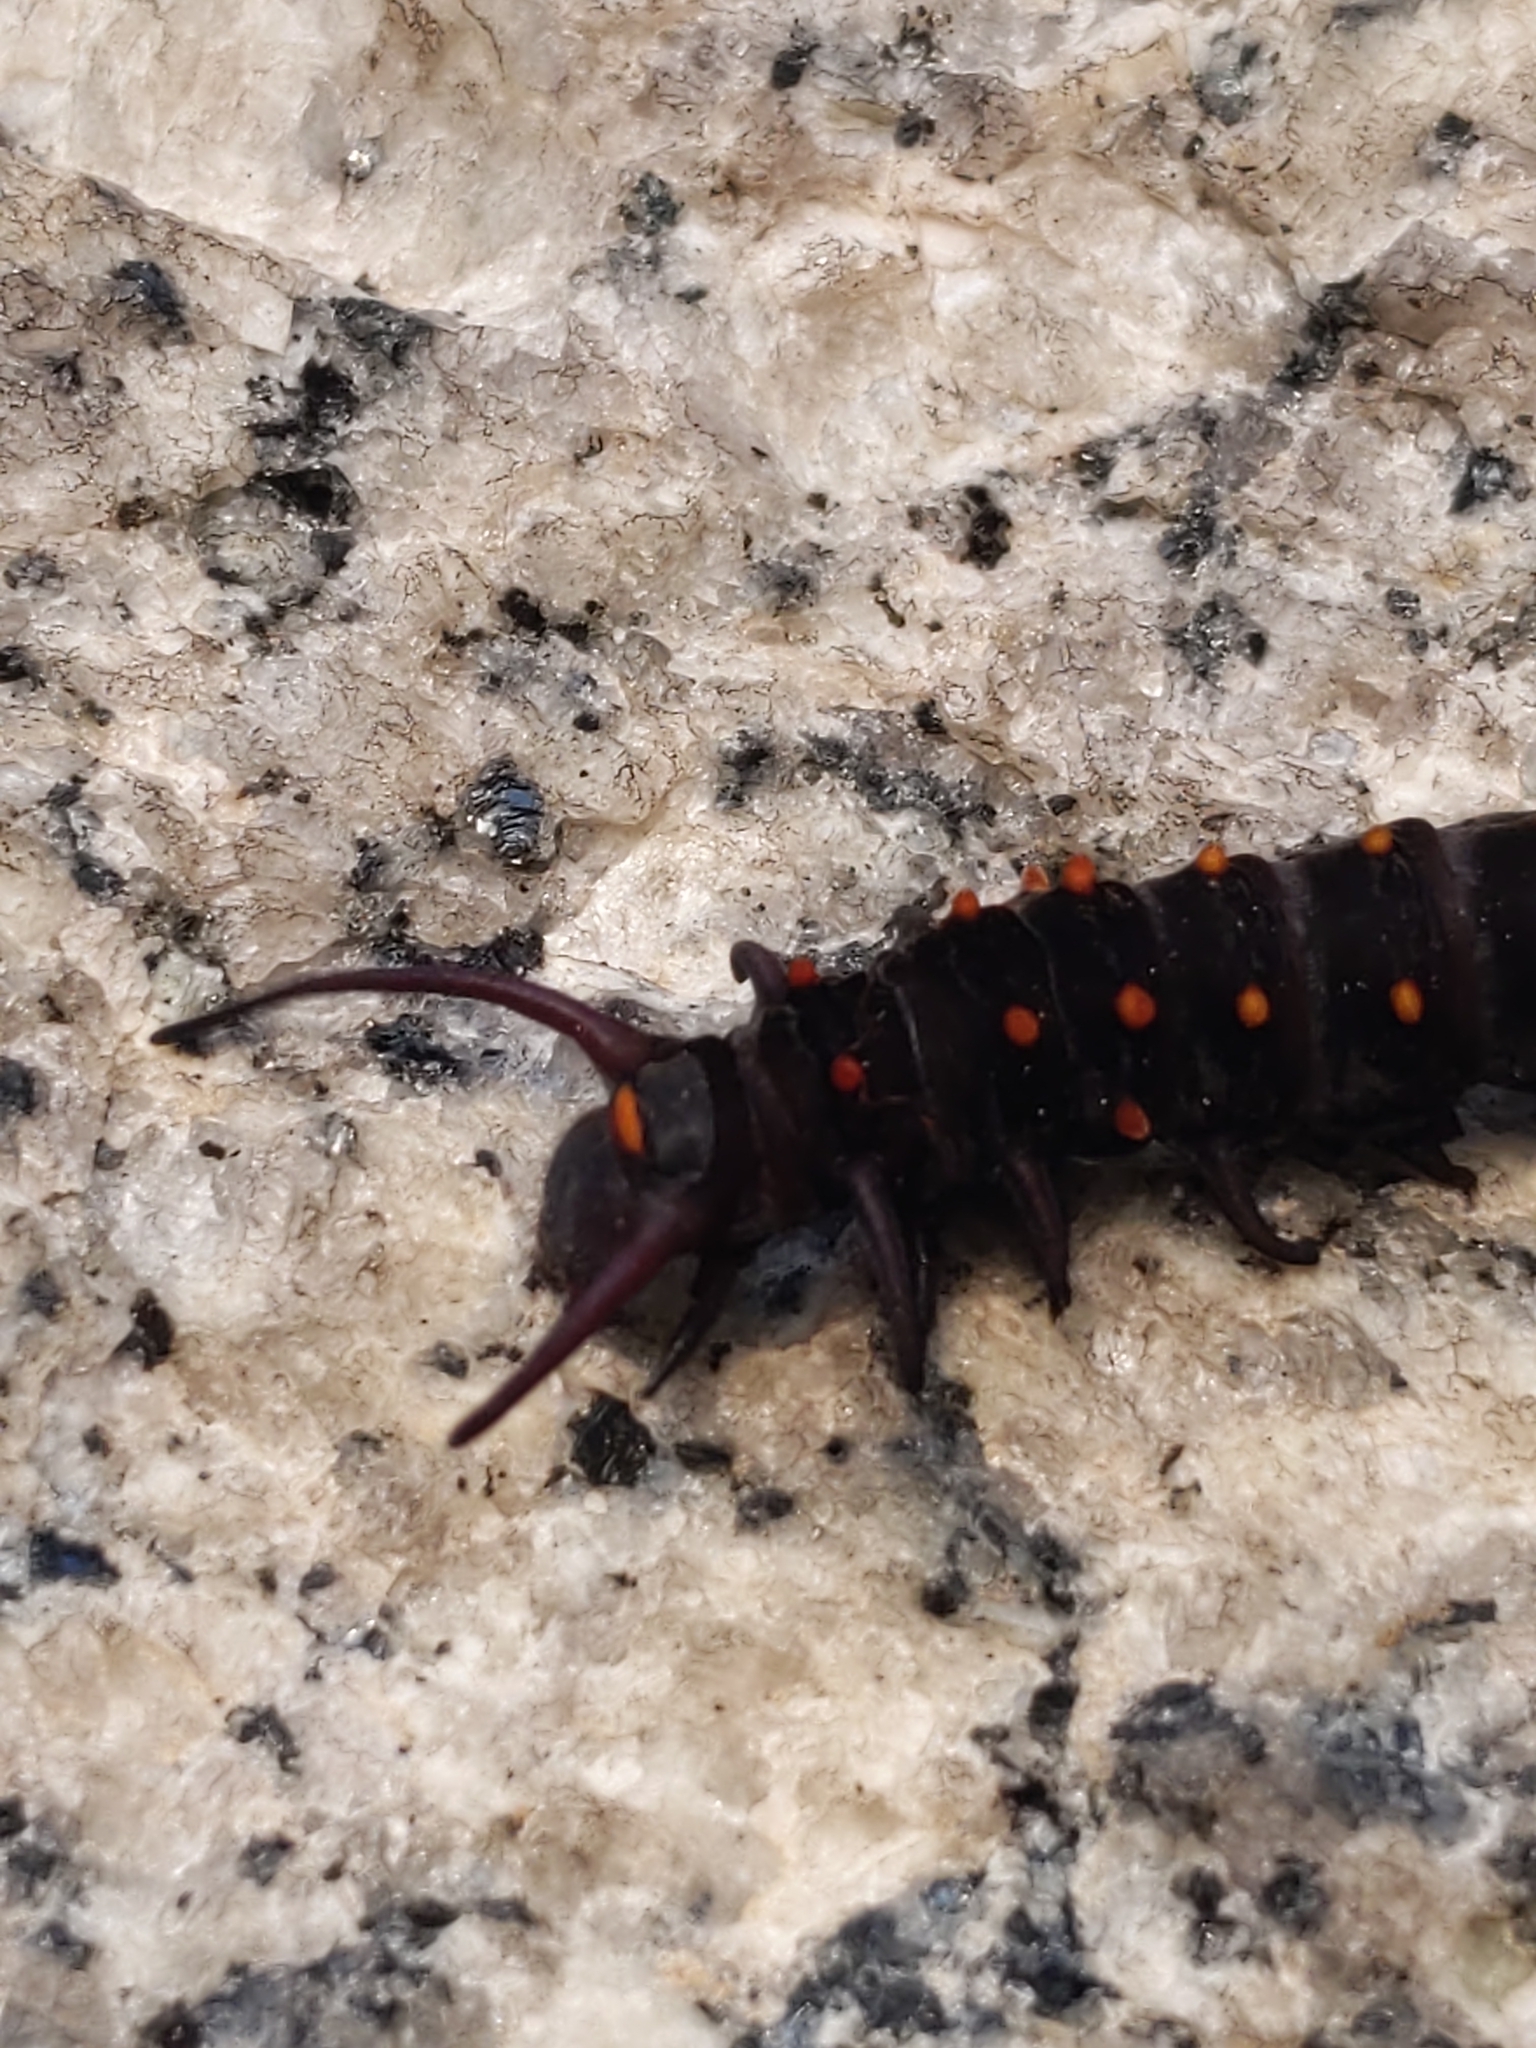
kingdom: Animalia
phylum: Arthropoda
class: Insecta
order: Lepidoptera
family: Papilionidae
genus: Battus
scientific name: Battus philenor
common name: Pipevine swallowtail
